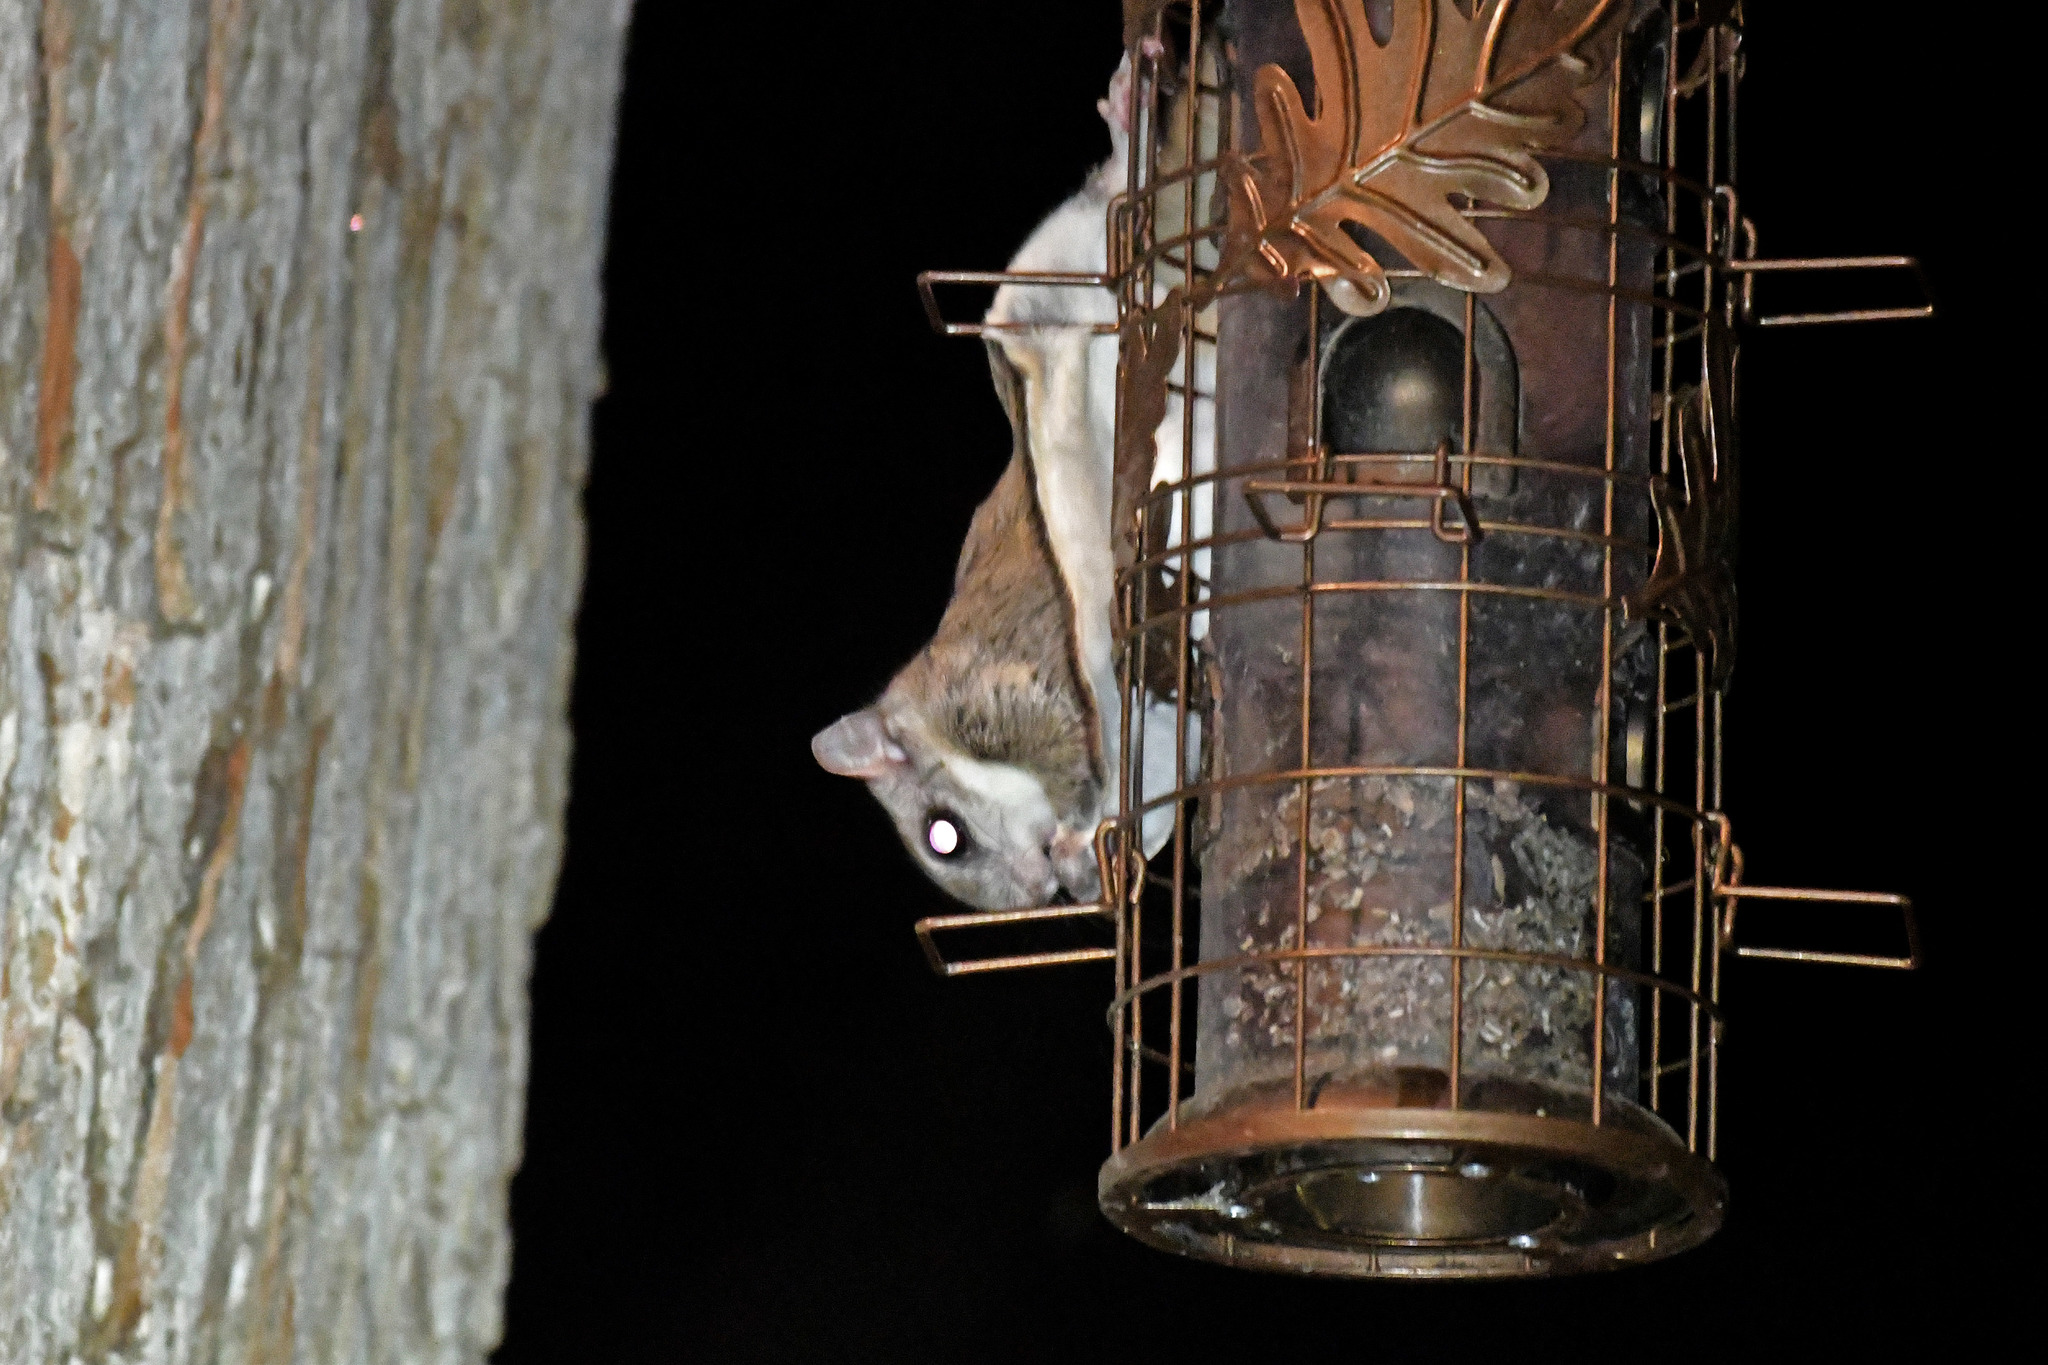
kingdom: Animalia
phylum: Chordata
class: Mammalia
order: Rodentia
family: Sciuridae
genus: Glaucomys
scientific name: Glaucomys volans
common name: Southern flying squirrel
